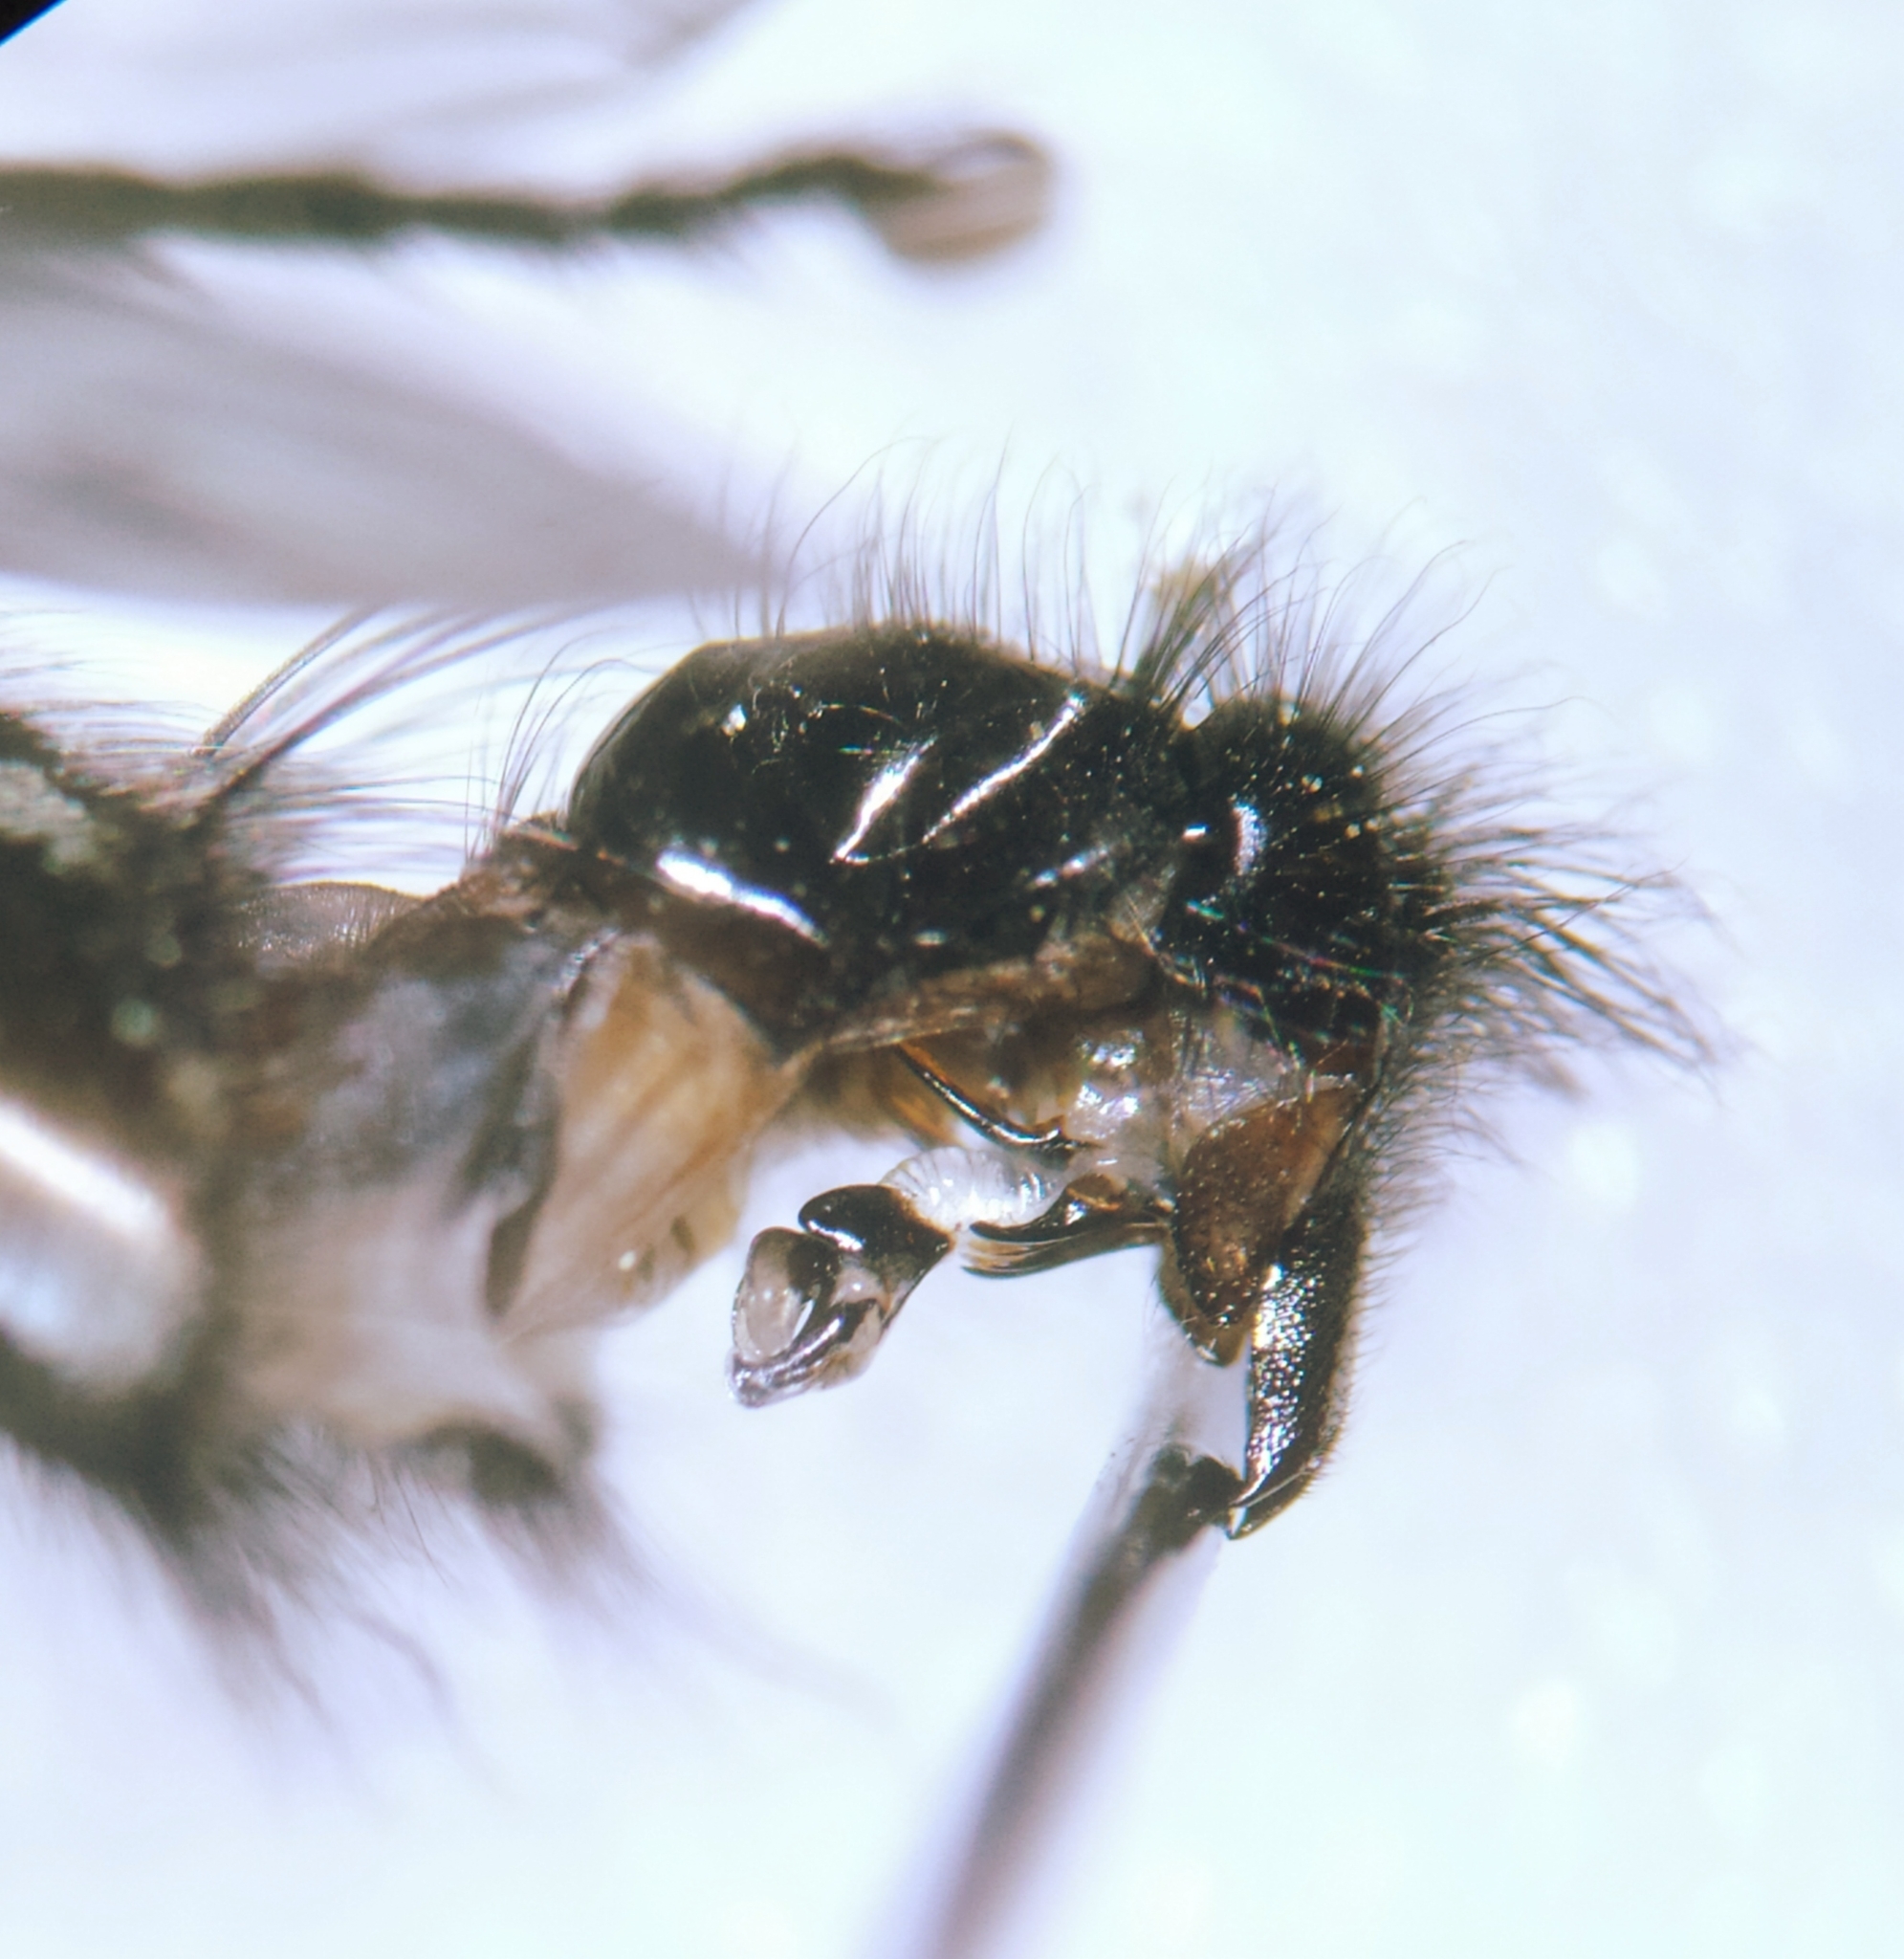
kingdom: Animalia
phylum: Arthropoda
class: Insecta
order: Diptera
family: Sarcophagidae
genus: Sarcophaga
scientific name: Sarcophaga carnaria
